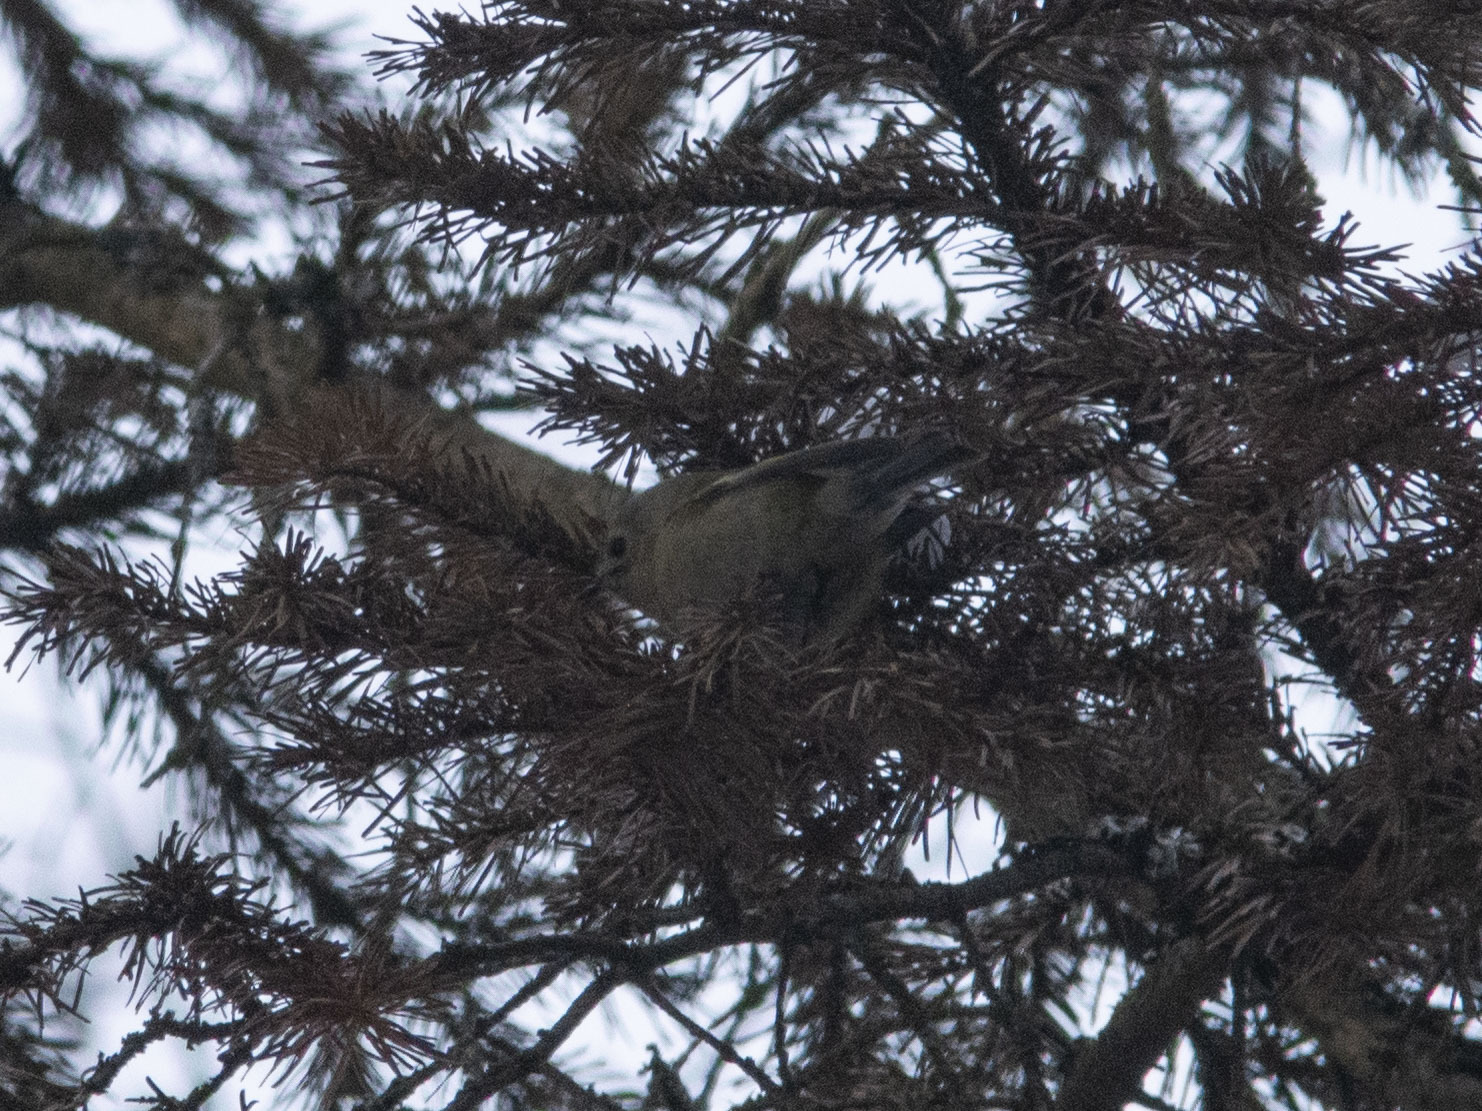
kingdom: Animalia
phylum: Chordata
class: Aves
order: Passeriformes
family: Regulidae
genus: Regulus
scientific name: Regulus regulus
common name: Goldcrest
